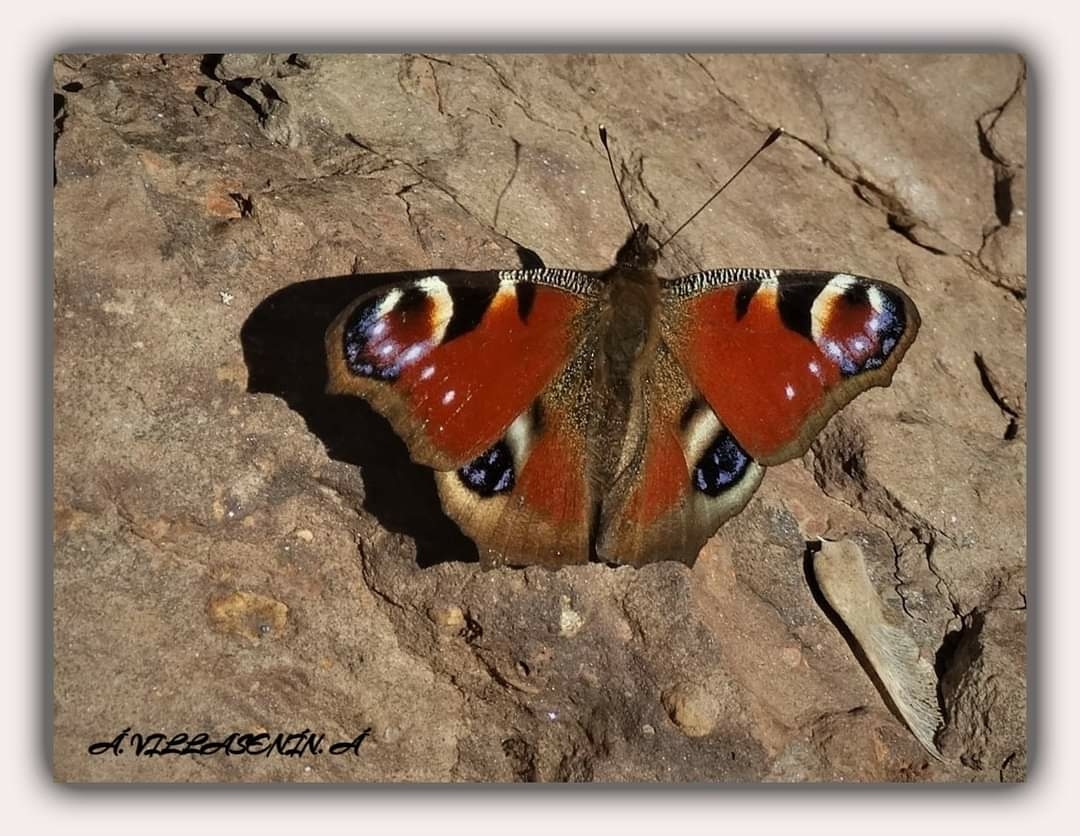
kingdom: Animalia
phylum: Arthropoda
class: Insecta
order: Lepidoptera
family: Nymphalidae
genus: Aglais
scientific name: Aglais io
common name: Peacock
